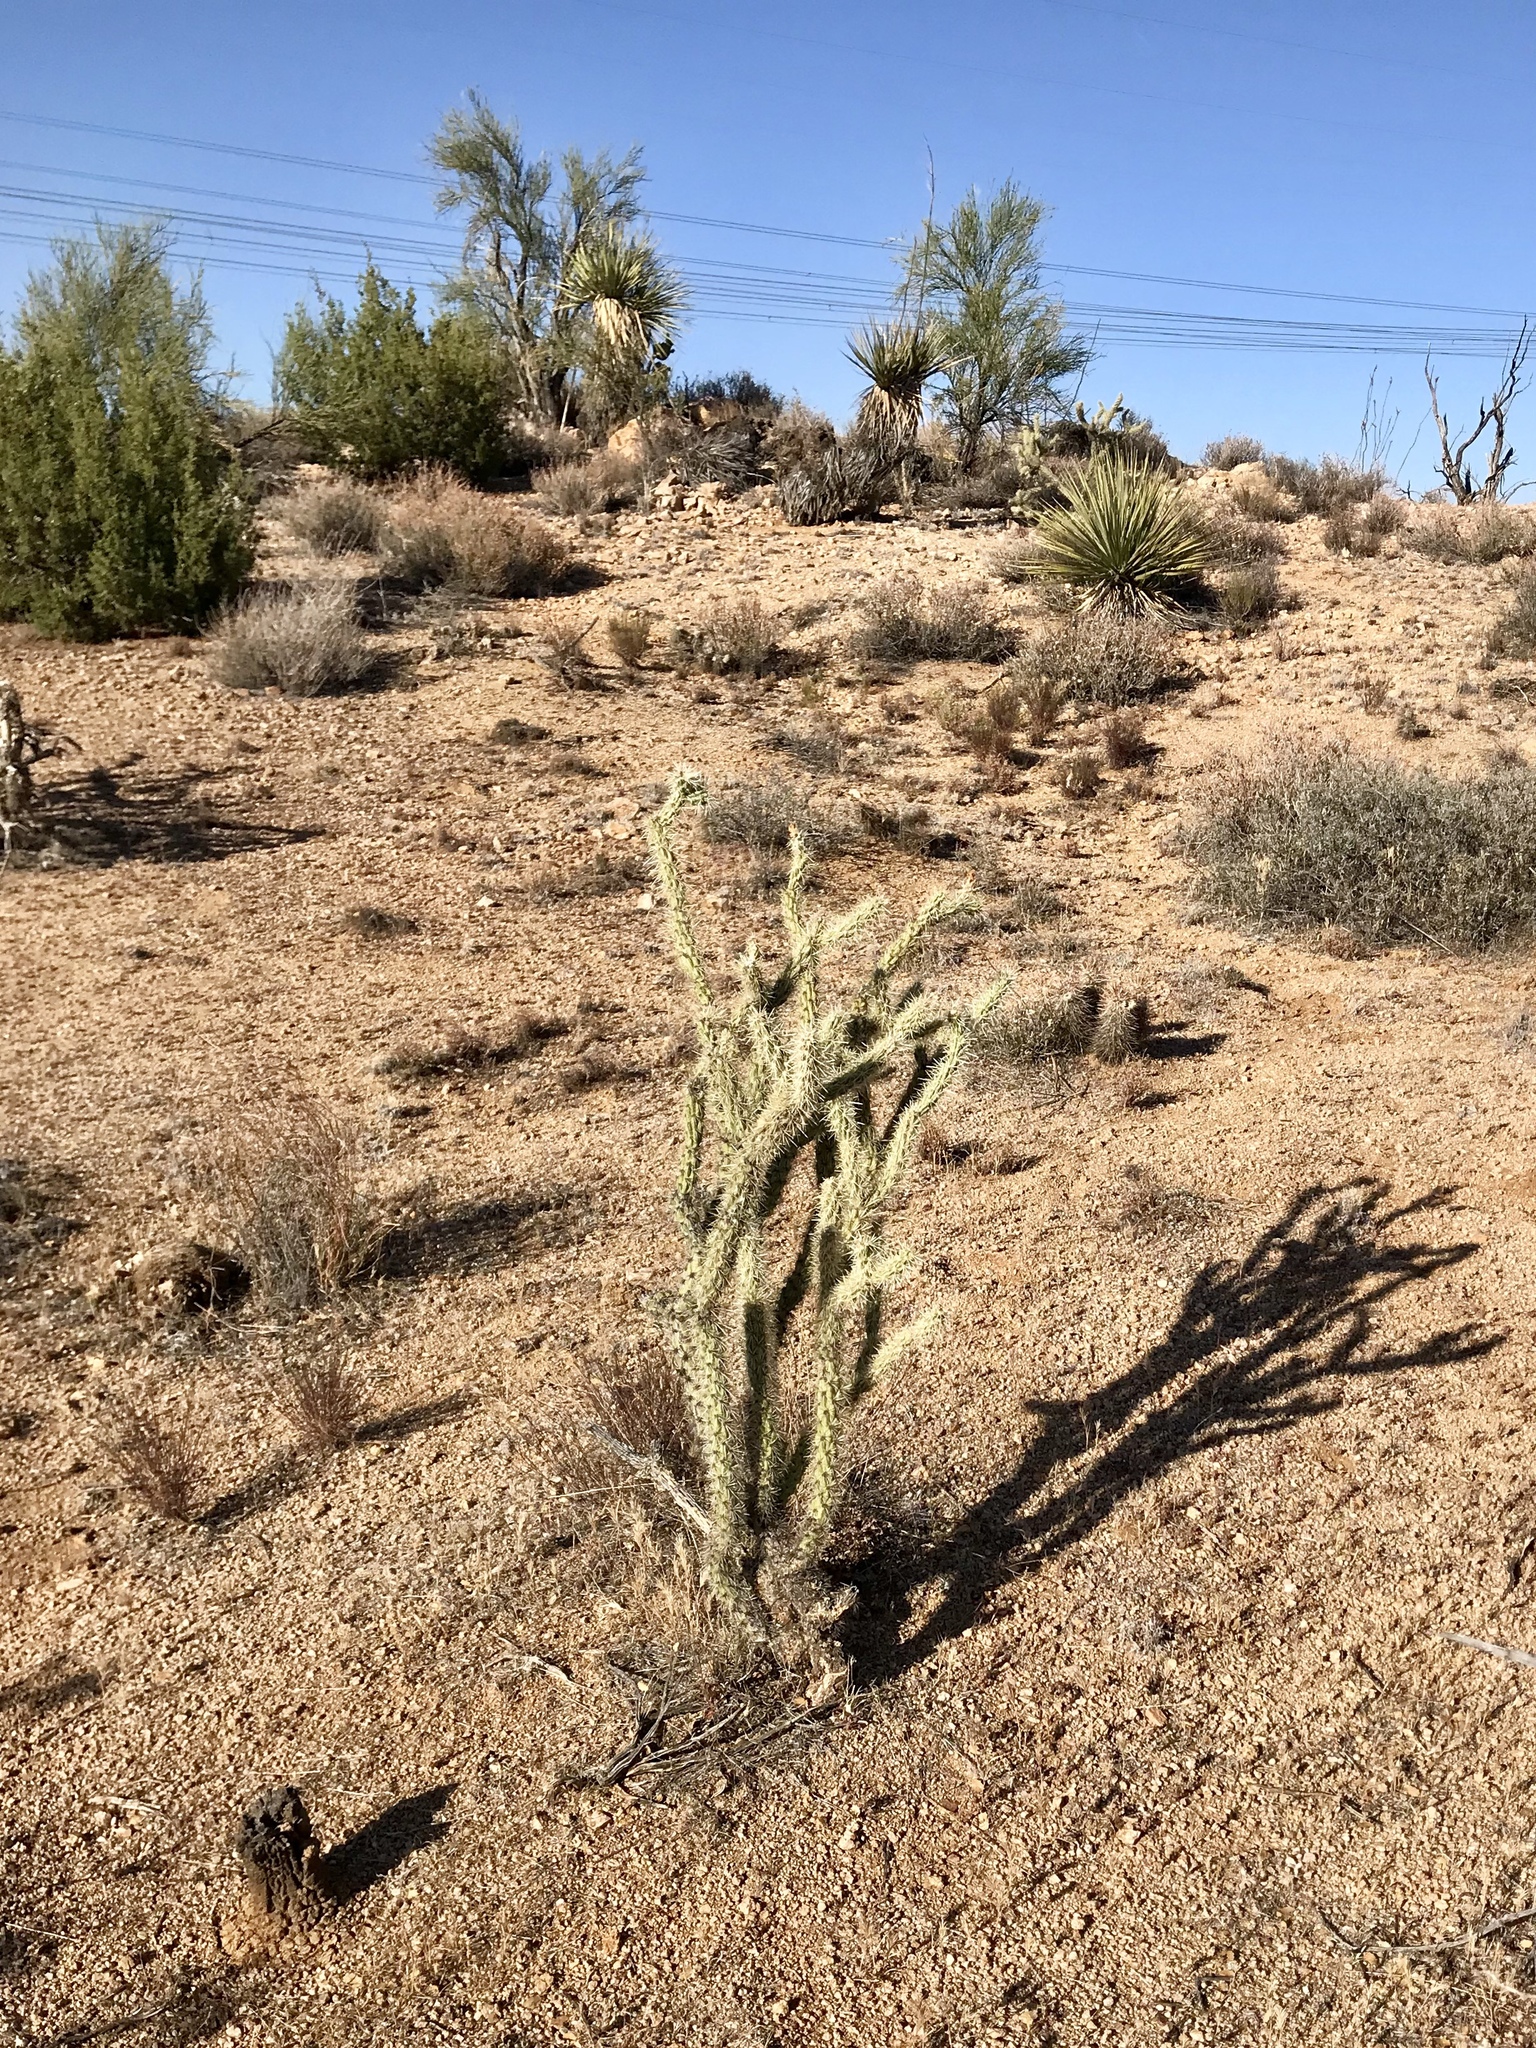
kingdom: Plantae
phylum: Tracheophyta
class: Magnoliopsida
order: Caryophyllales
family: Cactaceae
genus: Cylindropuntia
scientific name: Cylindropuntia acanthocarpa
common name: Buckhorn cholla
